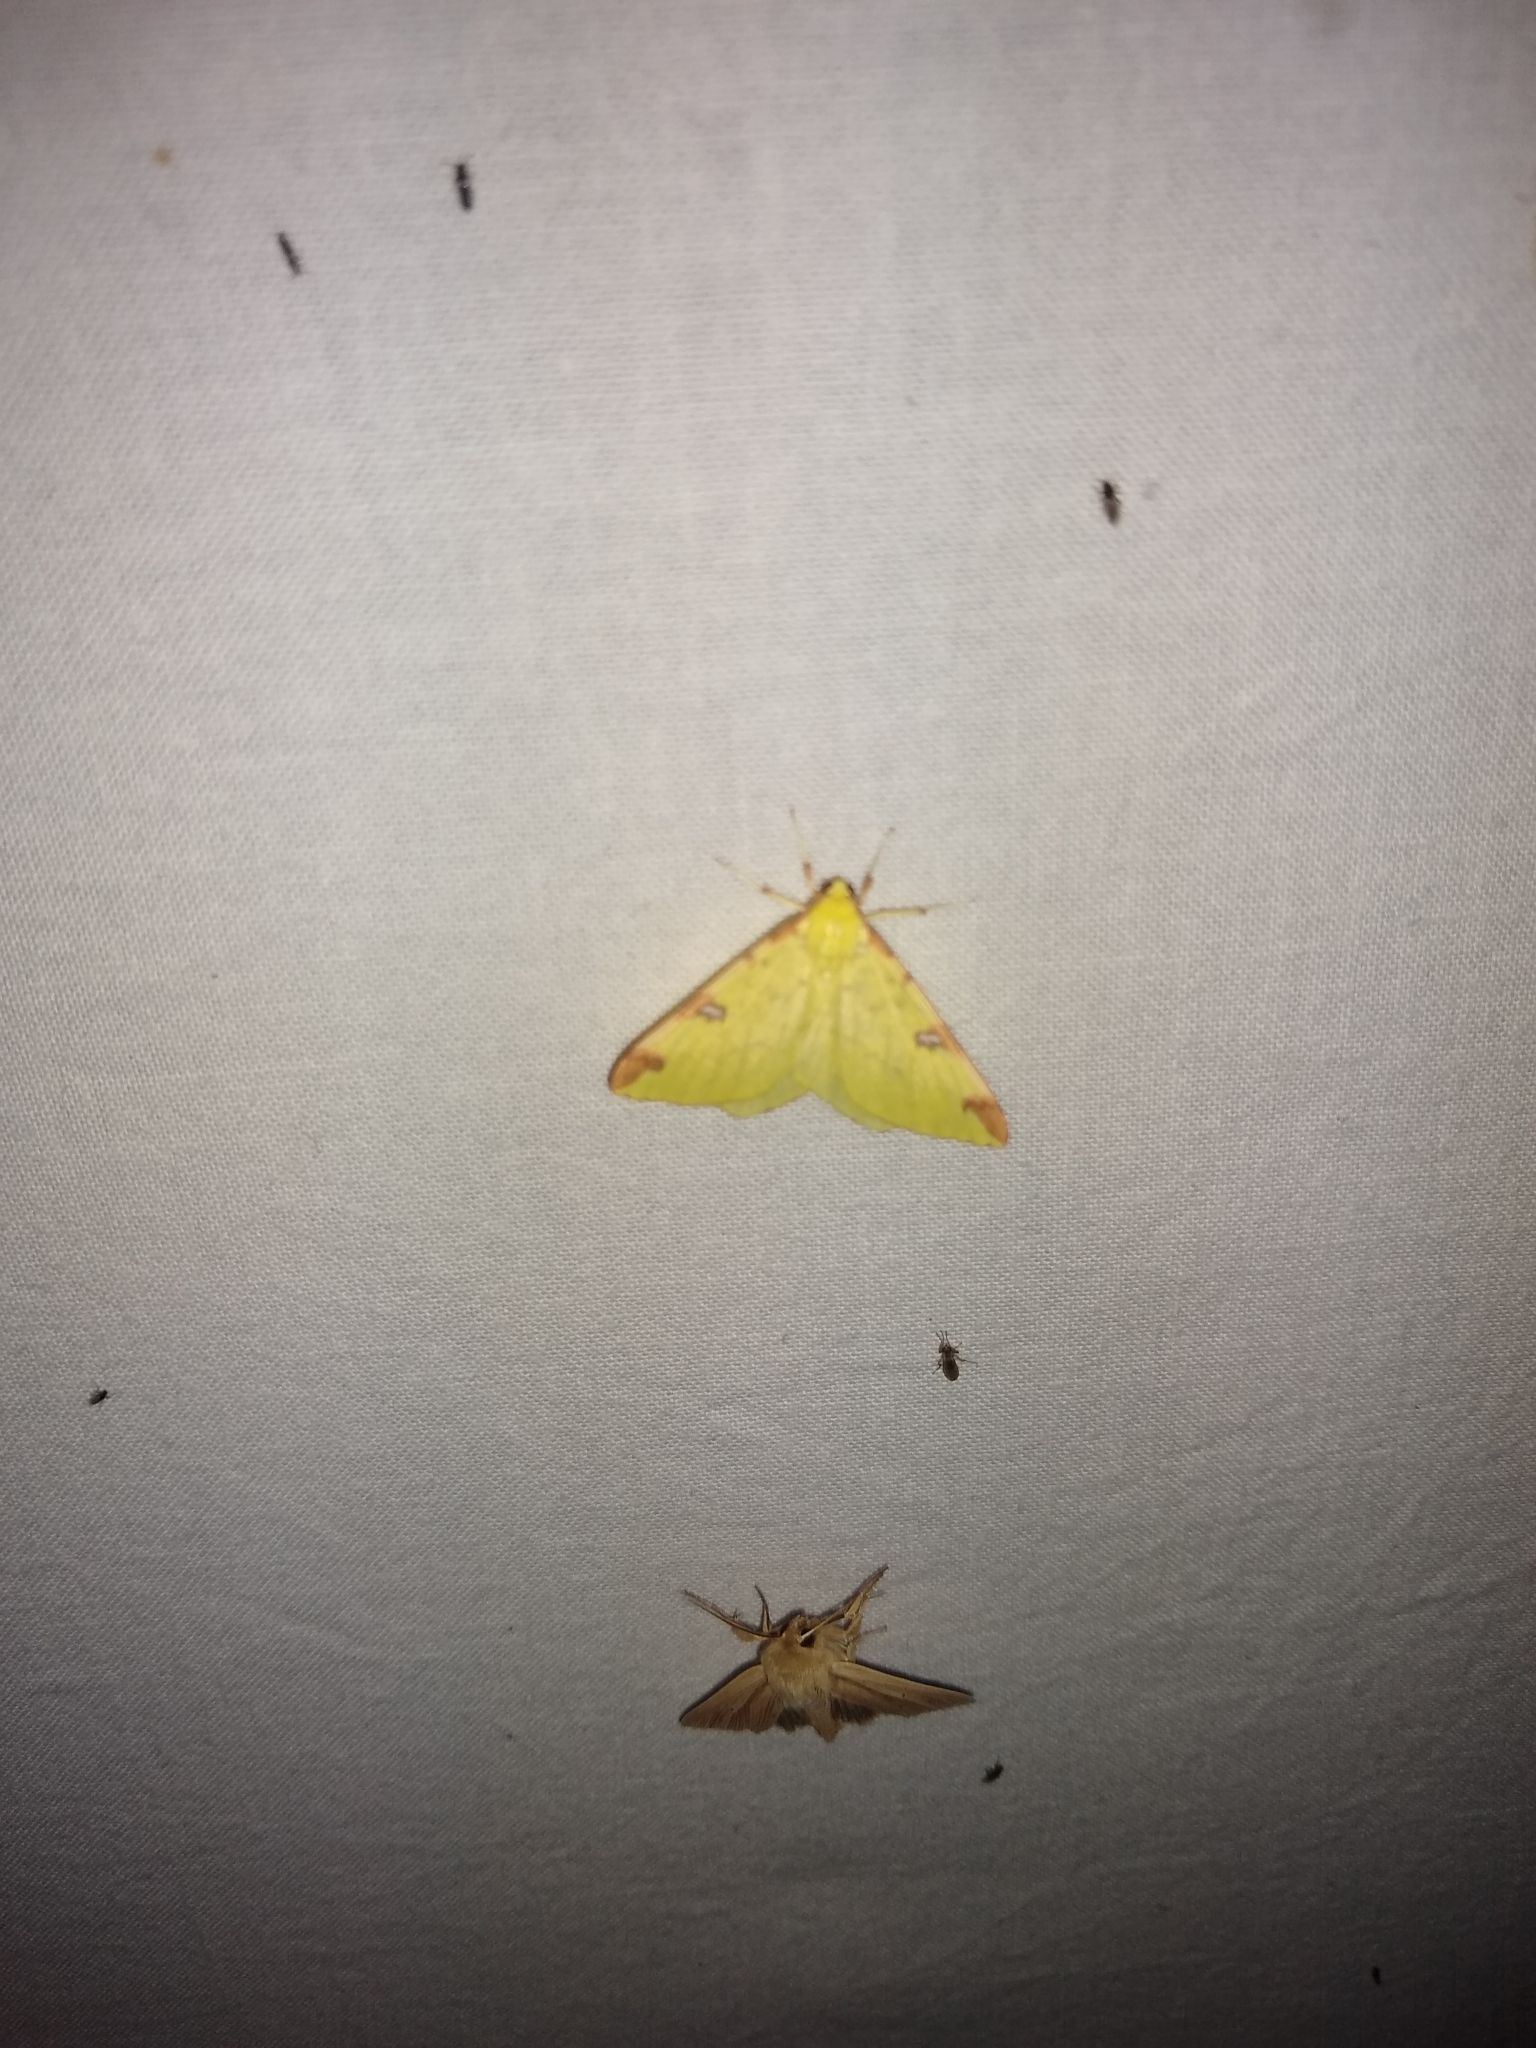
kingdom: Animalia
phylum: Arthropoda
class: Insecta
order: Lepidoptera
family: Geometridae
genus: Opisthograptis
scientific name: Opisthograptis luteolata
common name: Brimstone moth
